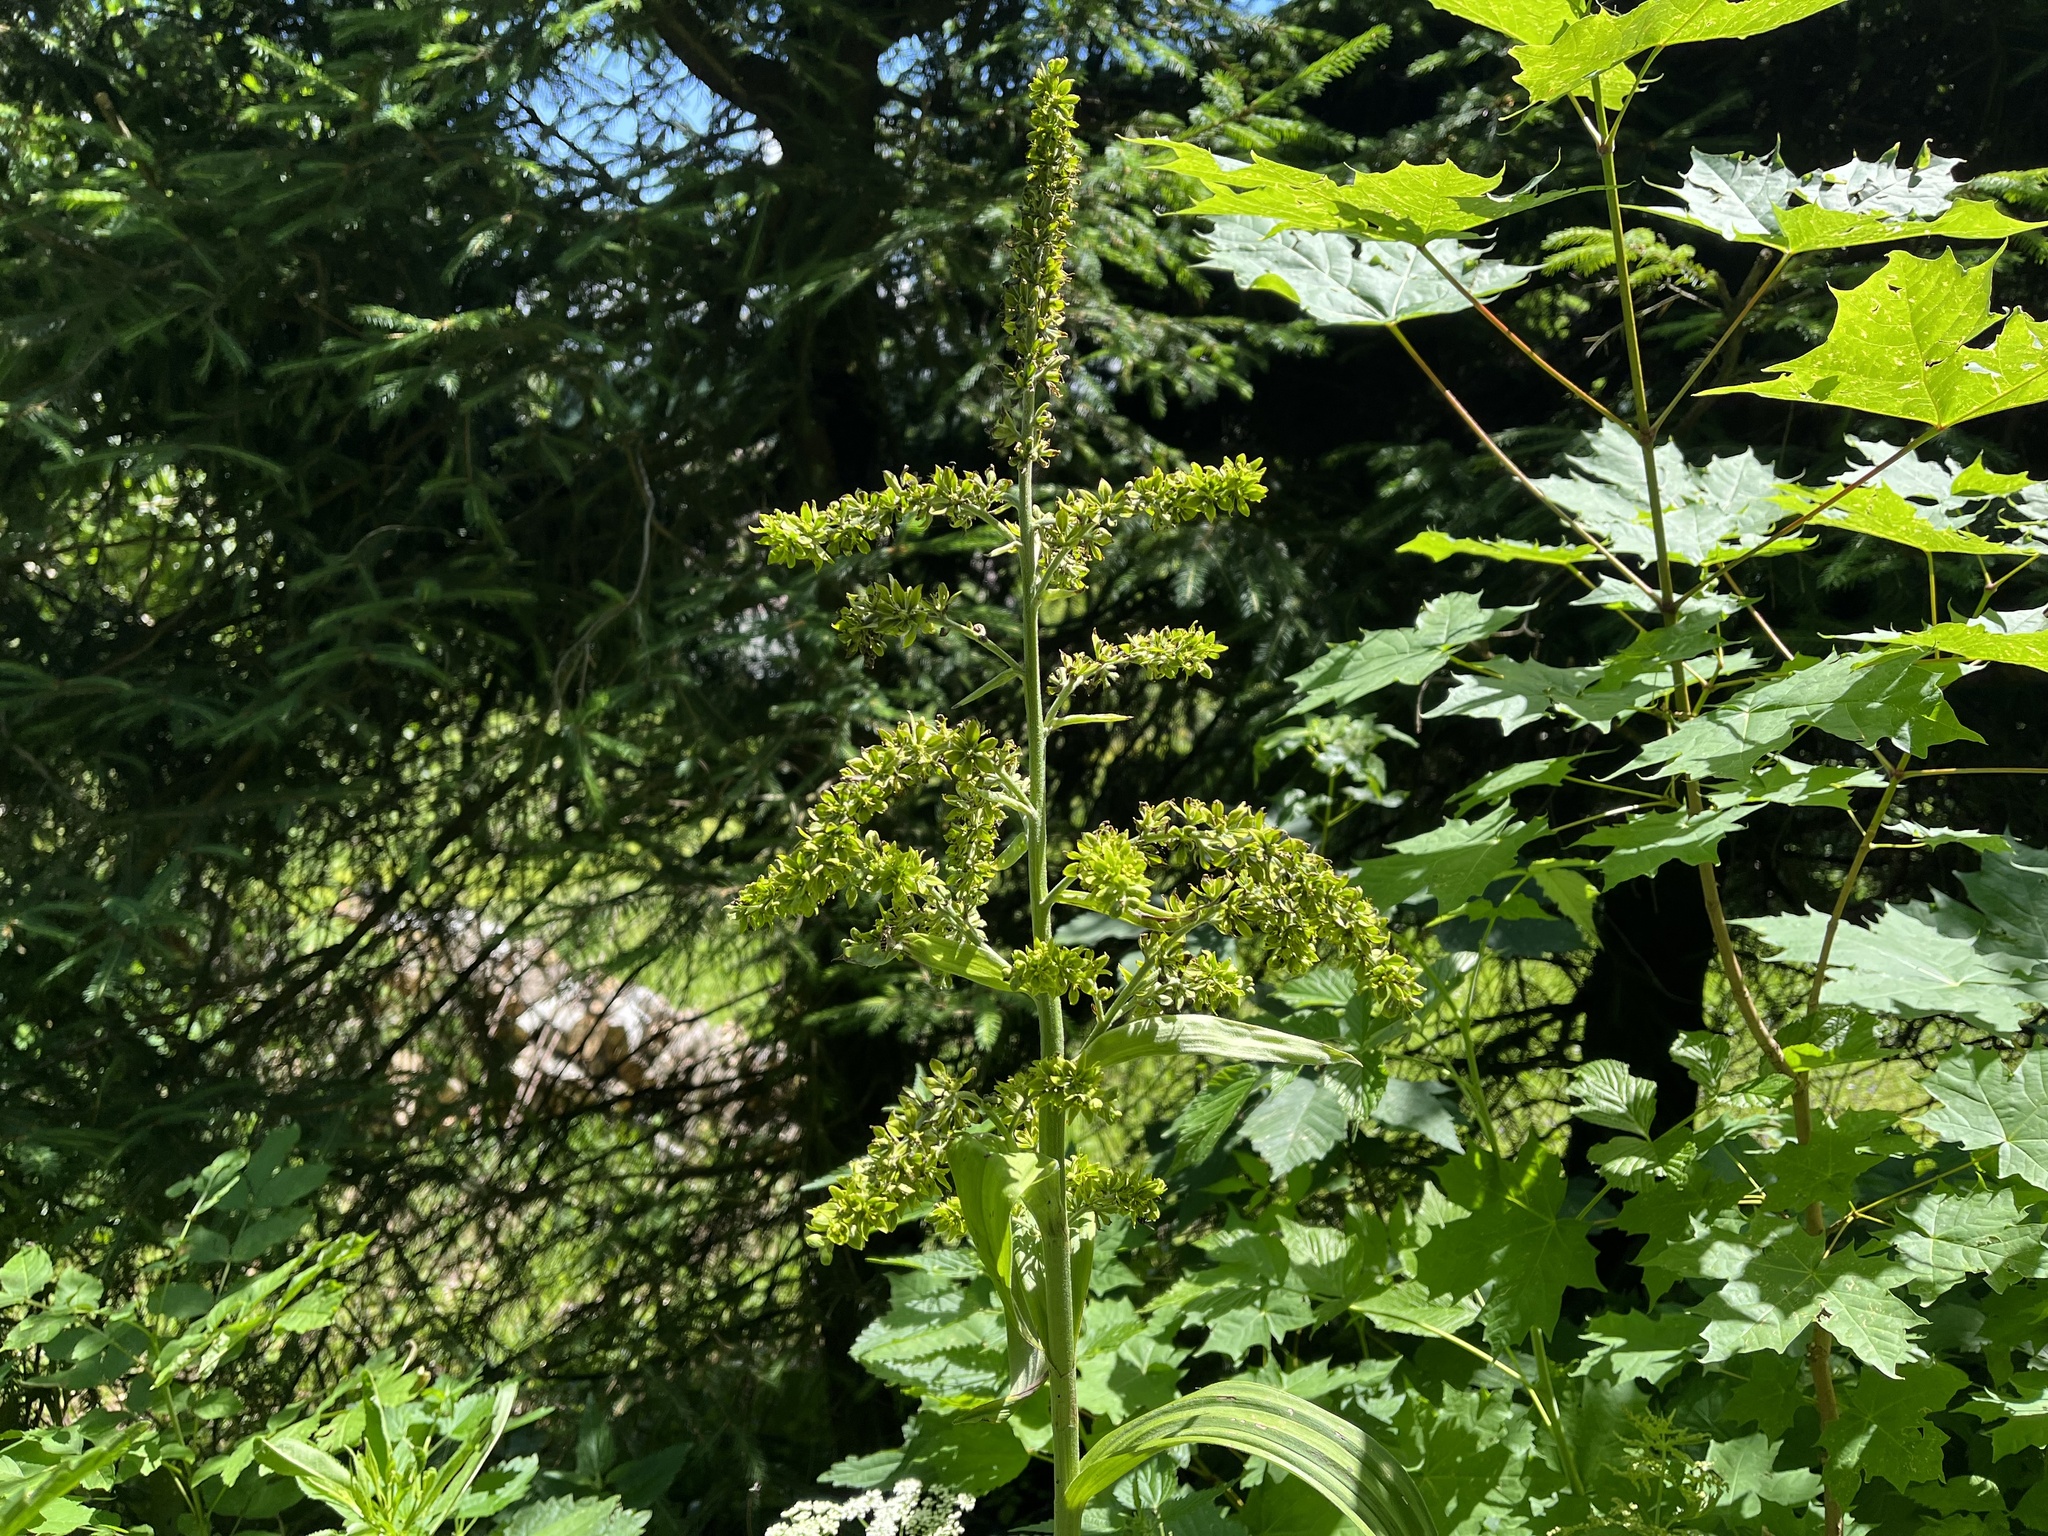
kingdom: Plantae
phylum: Tracheophyta
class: Liliopsida
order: Liliales
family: Melanthiaceae
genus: Veratrum
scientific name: Veratrum lobelianum
